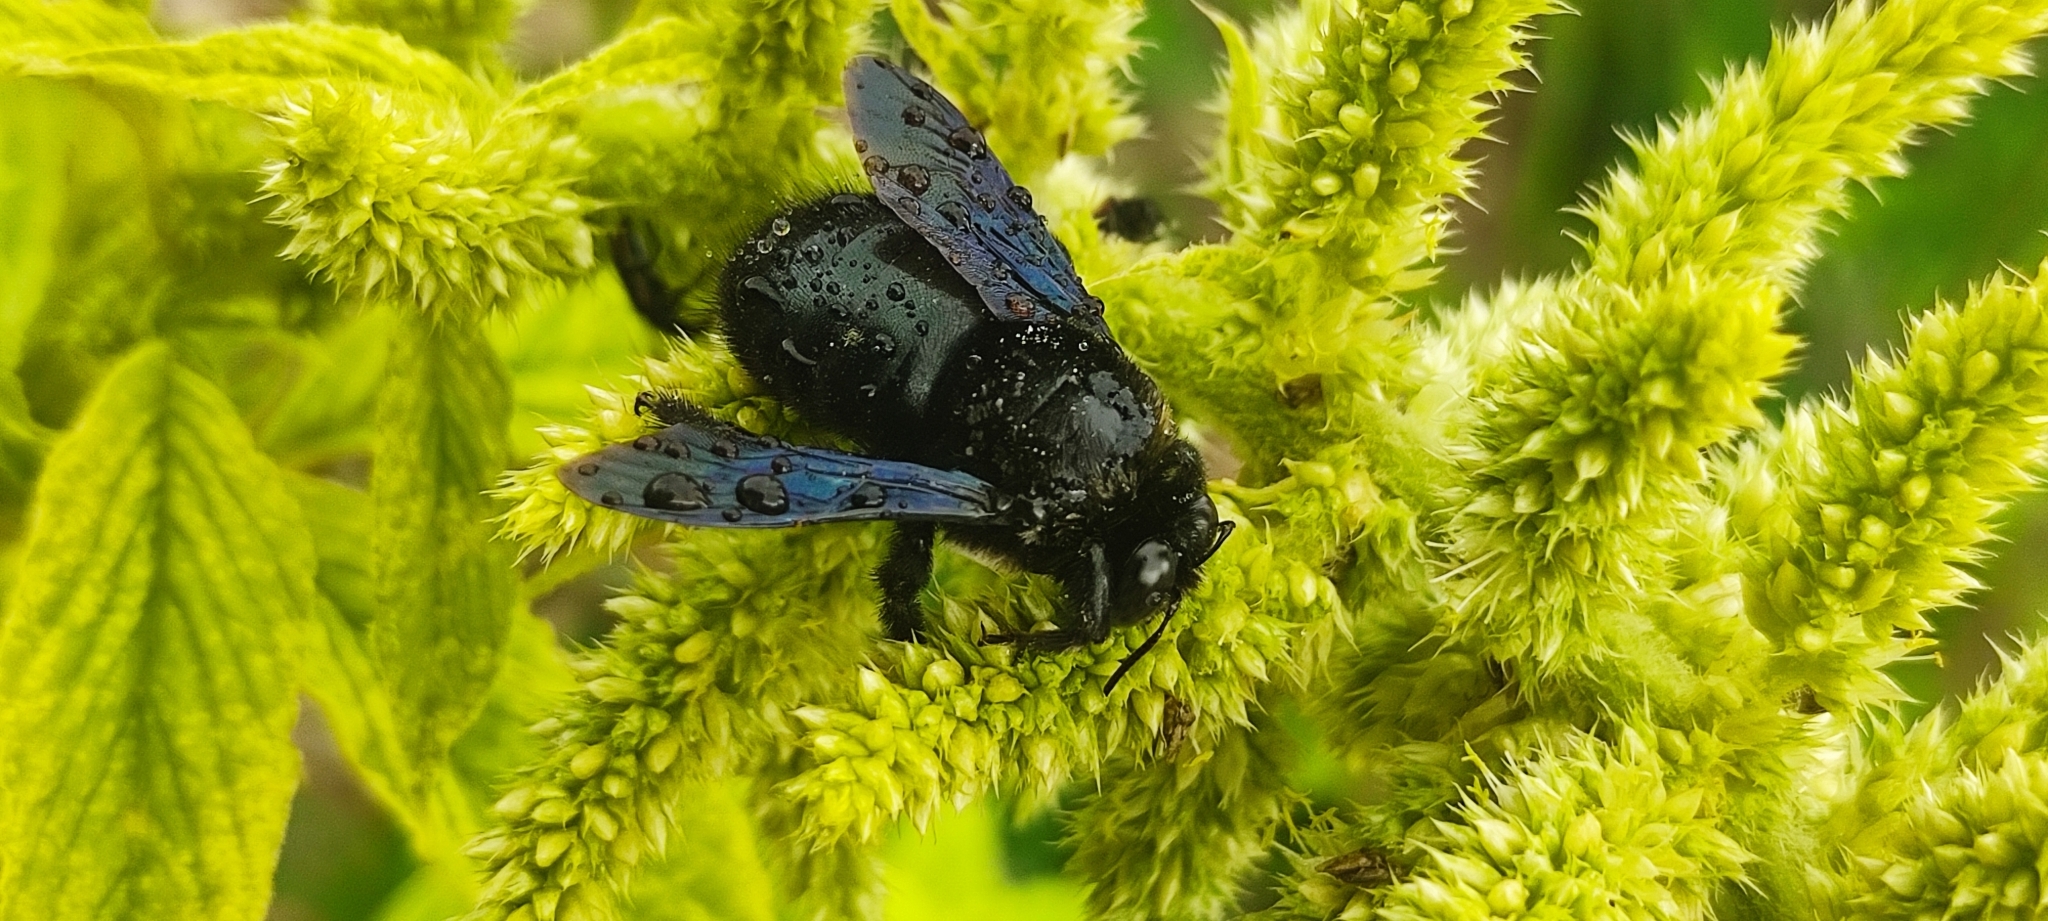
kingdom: Animalia
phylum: Arthropoda
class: Insecta
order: Hymenoptera
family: Apidae
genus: Xylocopa
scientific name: Xylocopa viridigastra
